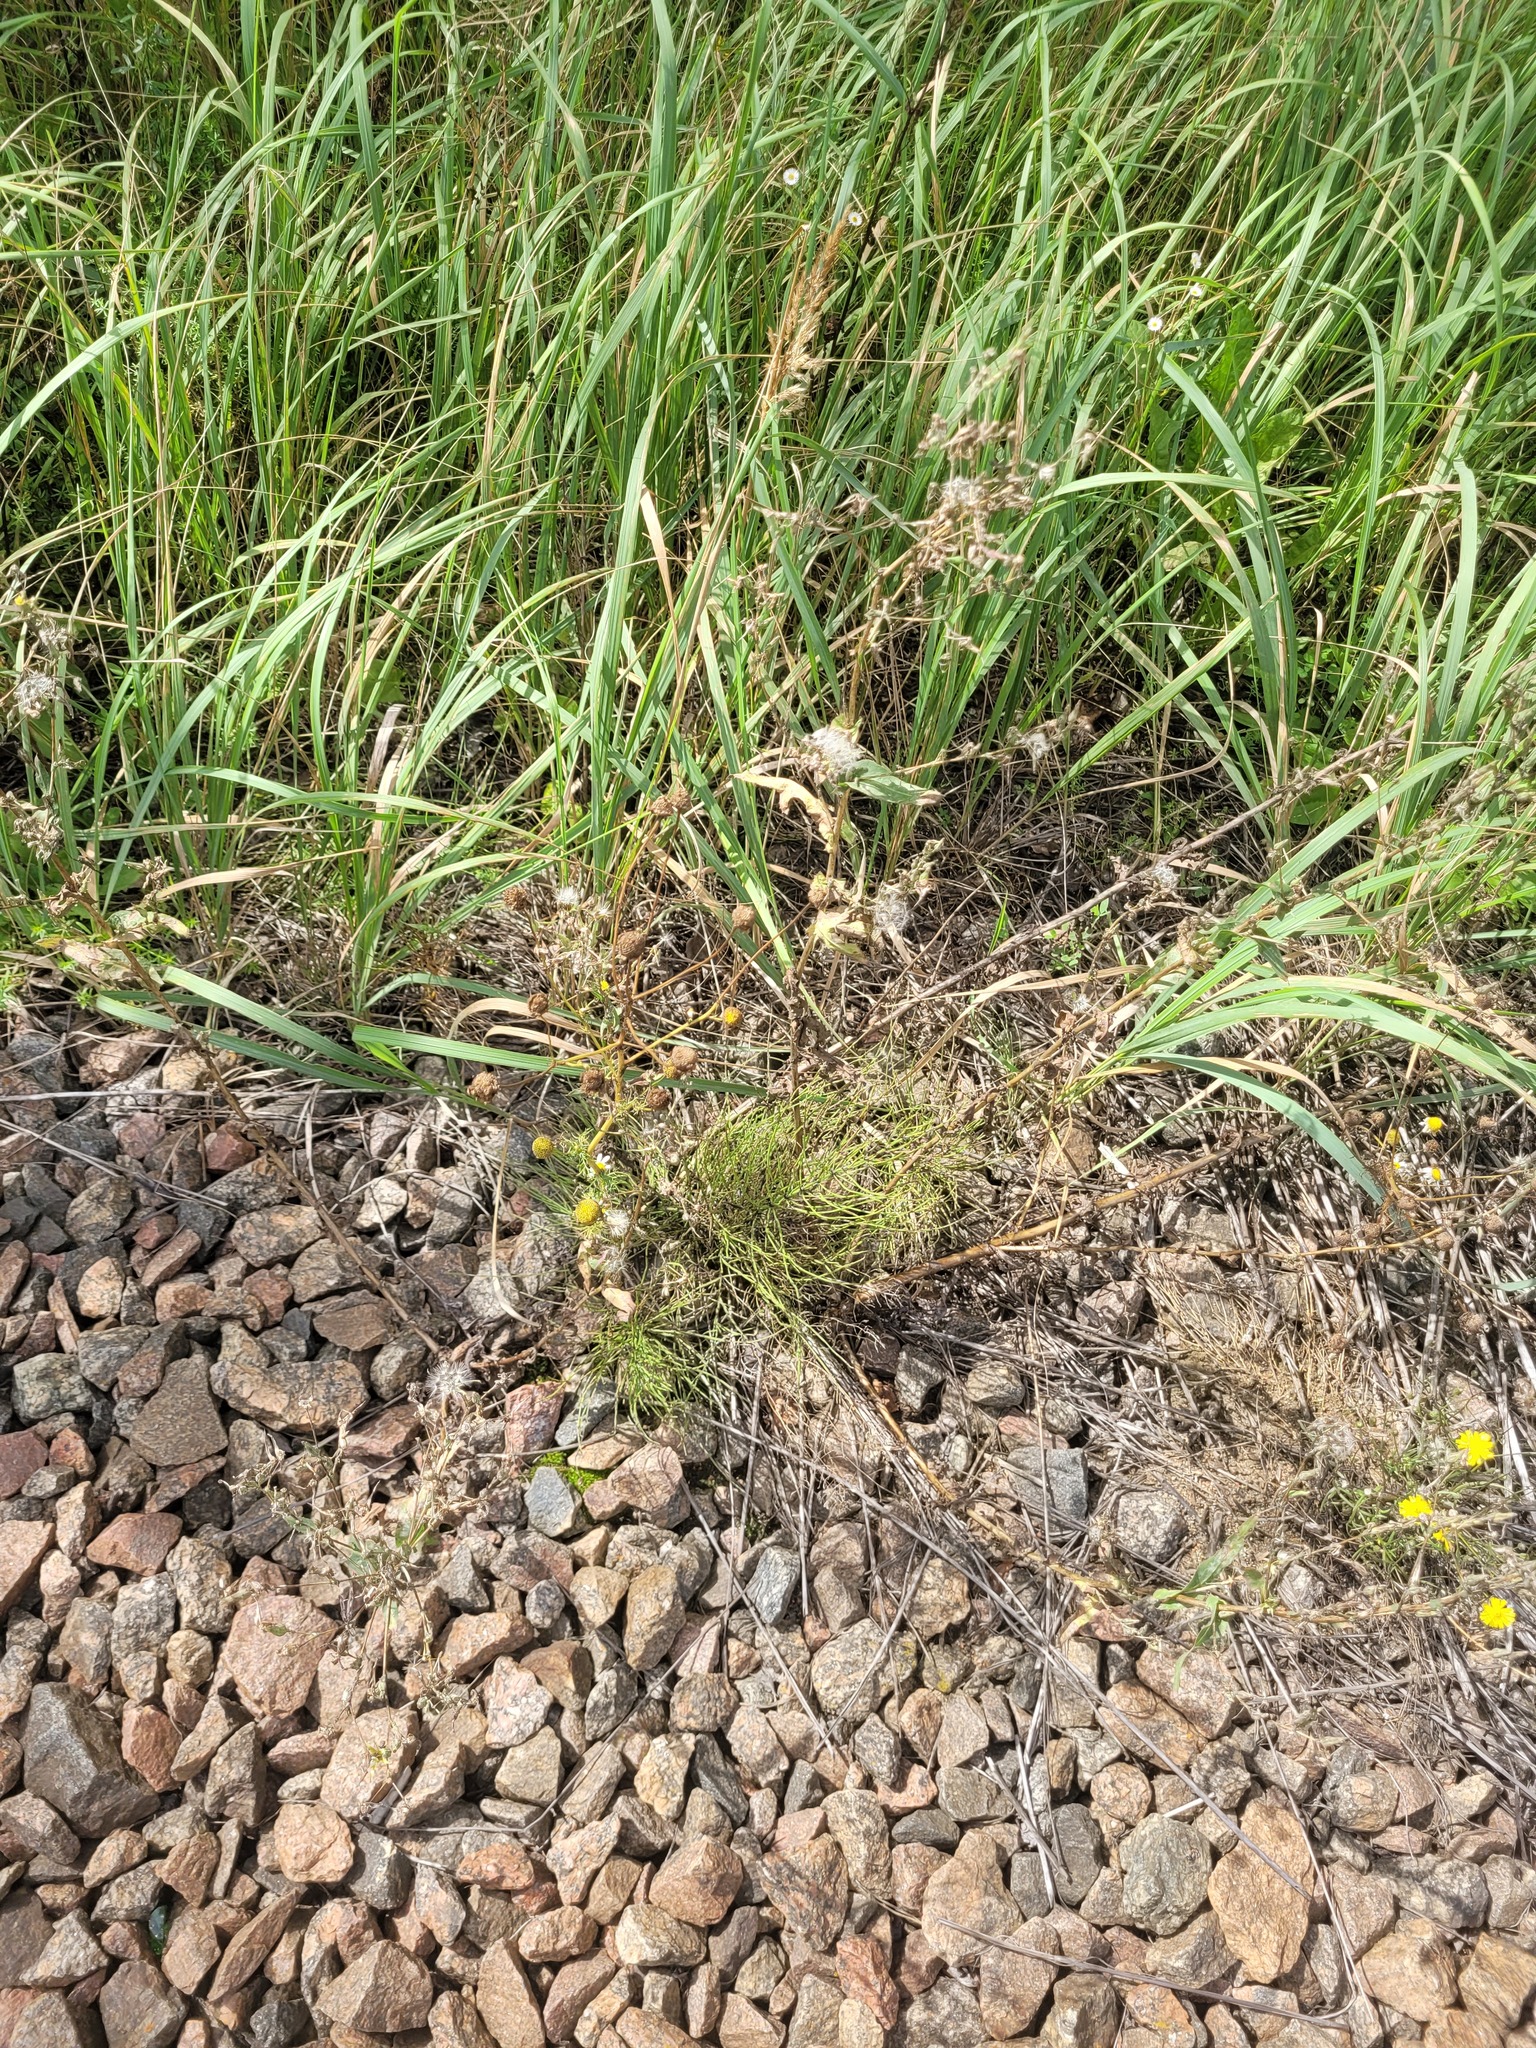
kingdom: Plantae
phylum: Tracheophyta
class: Magnoliopsida
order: Asterales
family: Asteraceae
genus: Tripleurospermum
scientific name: Tripleurospermum inodorum
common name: Scentless mayweed
